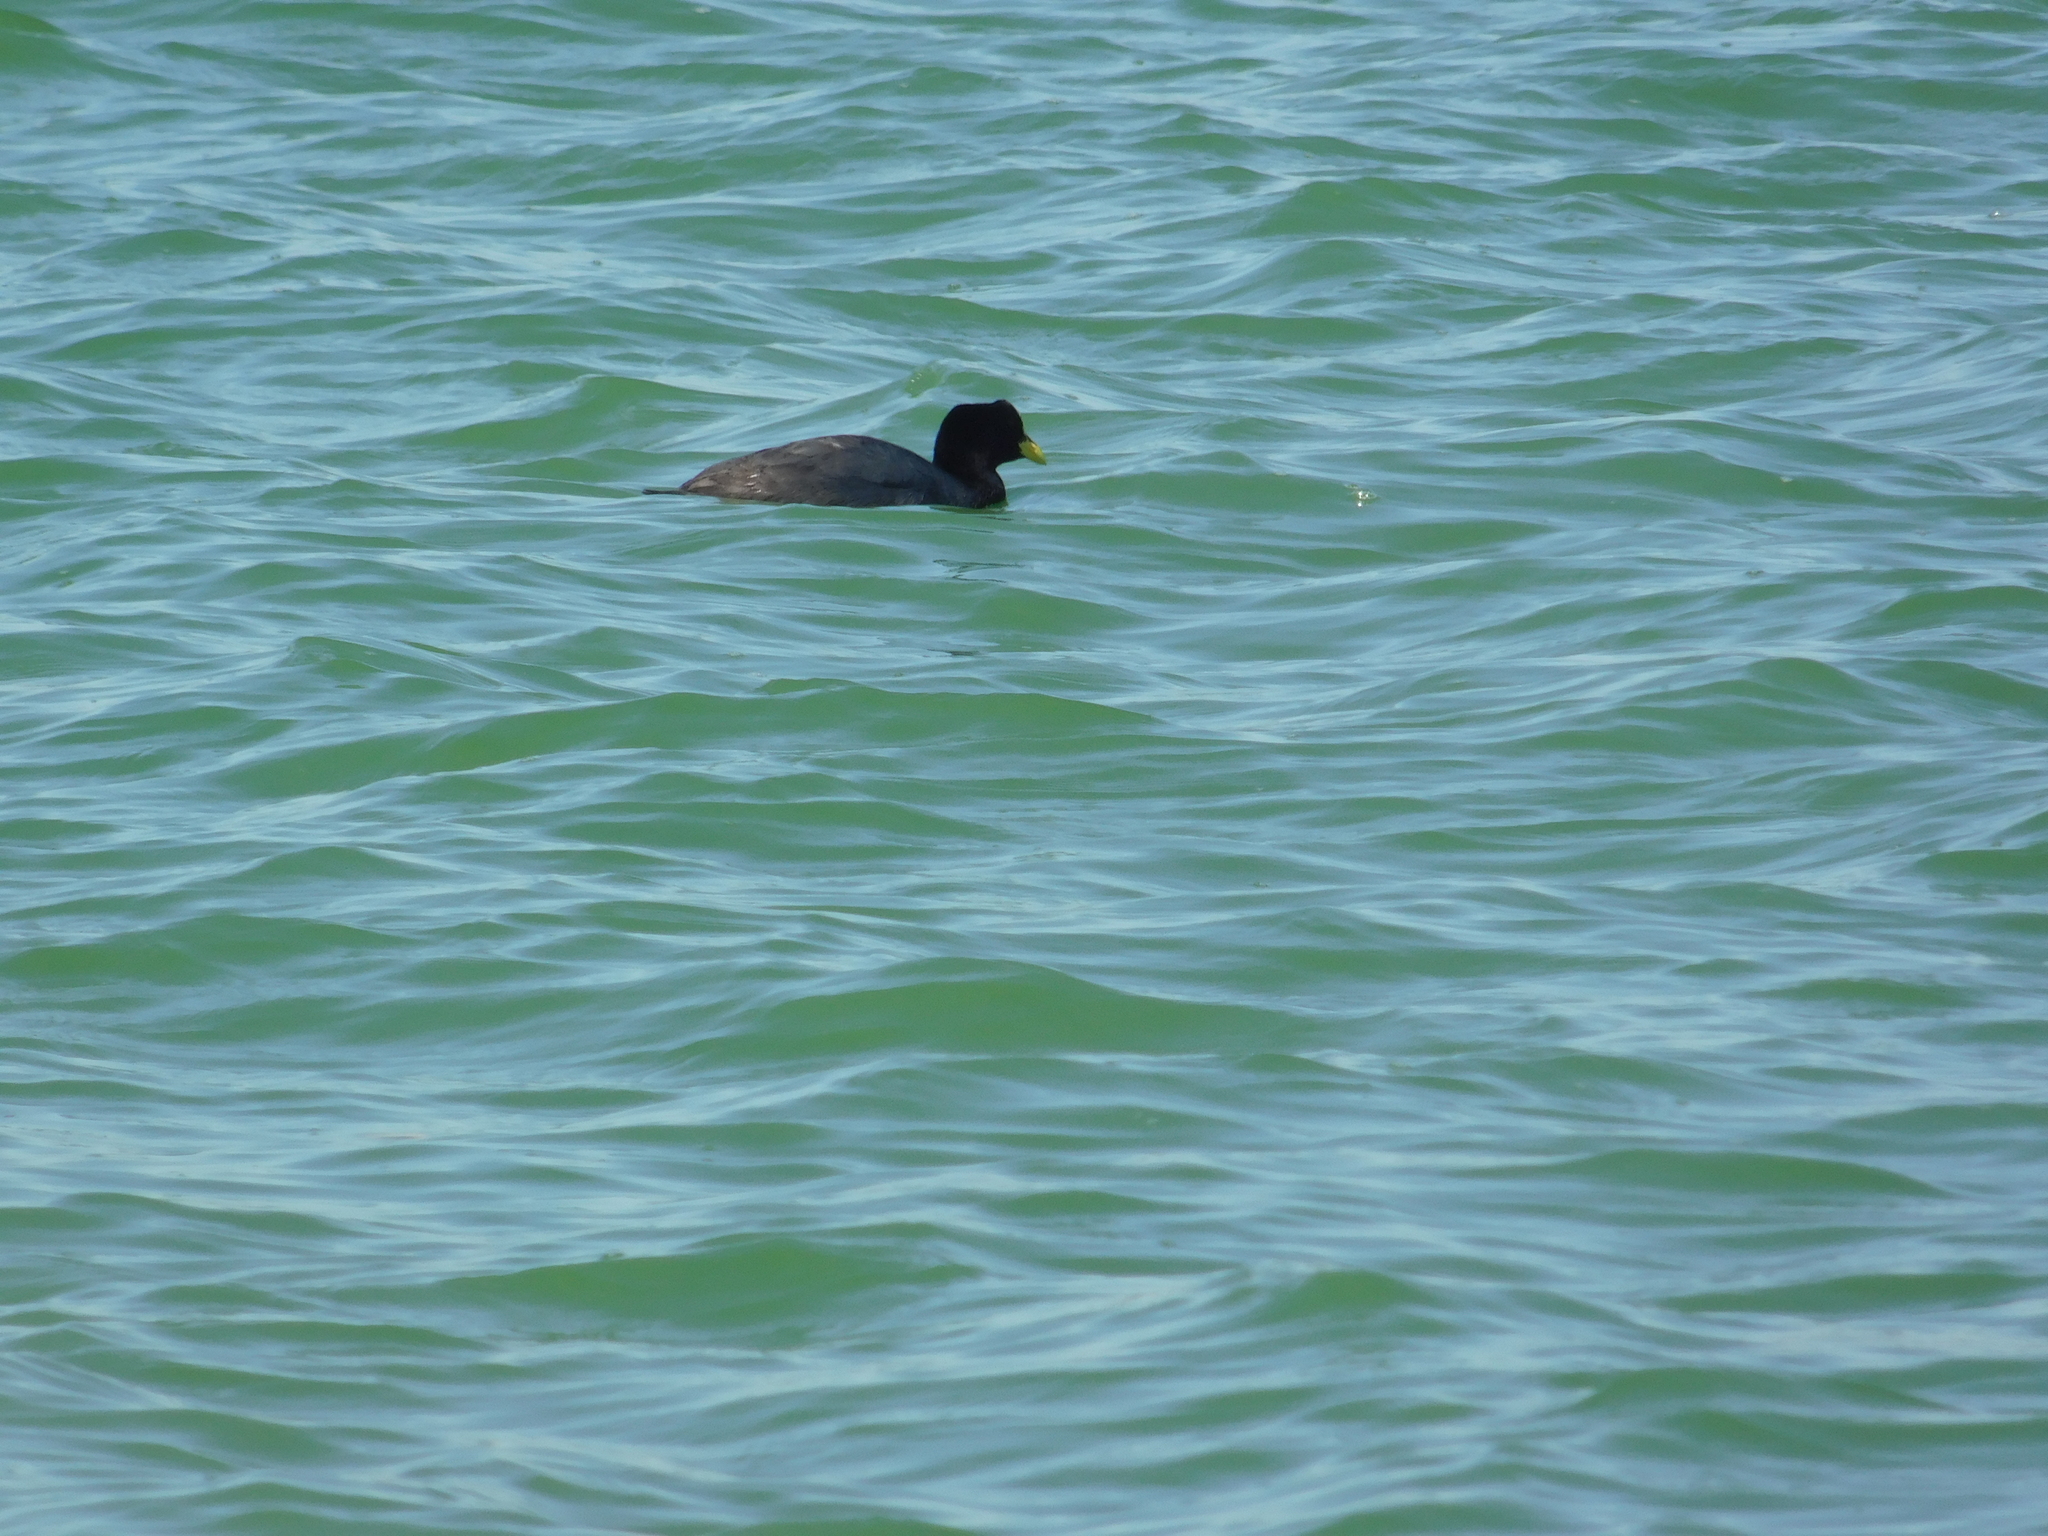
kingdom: Animalia
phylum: Chordata
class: Aves
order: Gruiformes
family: Rallidae
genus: Fulica
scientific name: Fulica armillata
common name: Red-gartered coot
